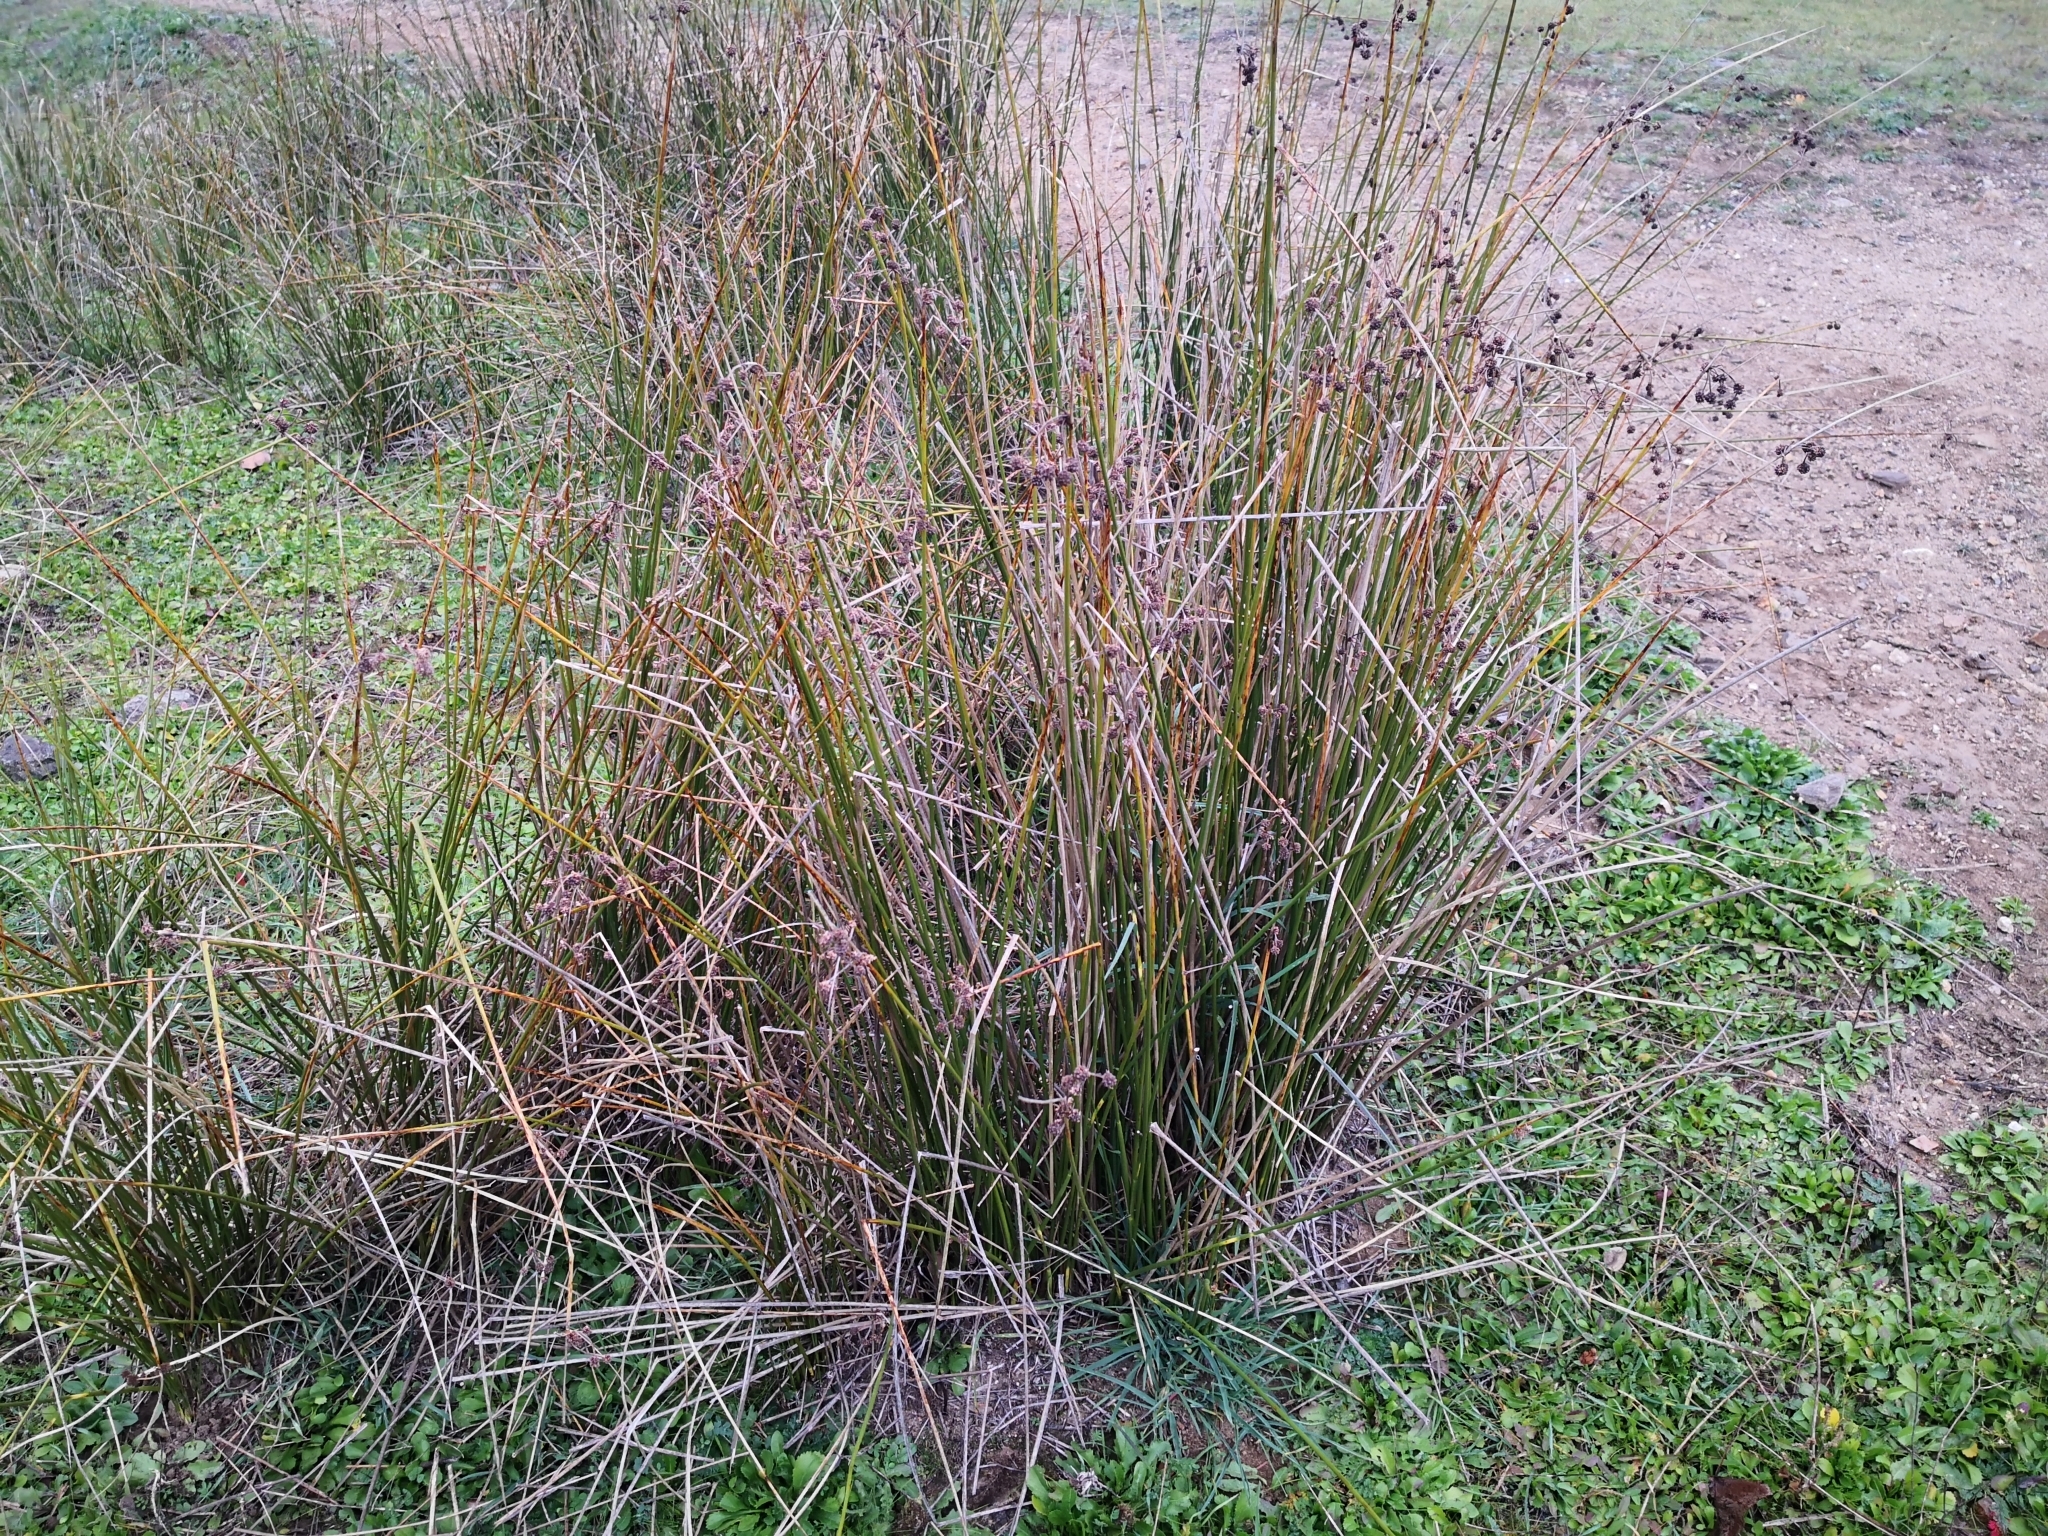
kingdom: Plantae
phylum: Tracheophyta
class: Liliopsida
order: Poales
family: Cyperaceae
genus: Scirpoides
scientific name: Scirpoides holoschoenus
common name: Round-headed club-rush
